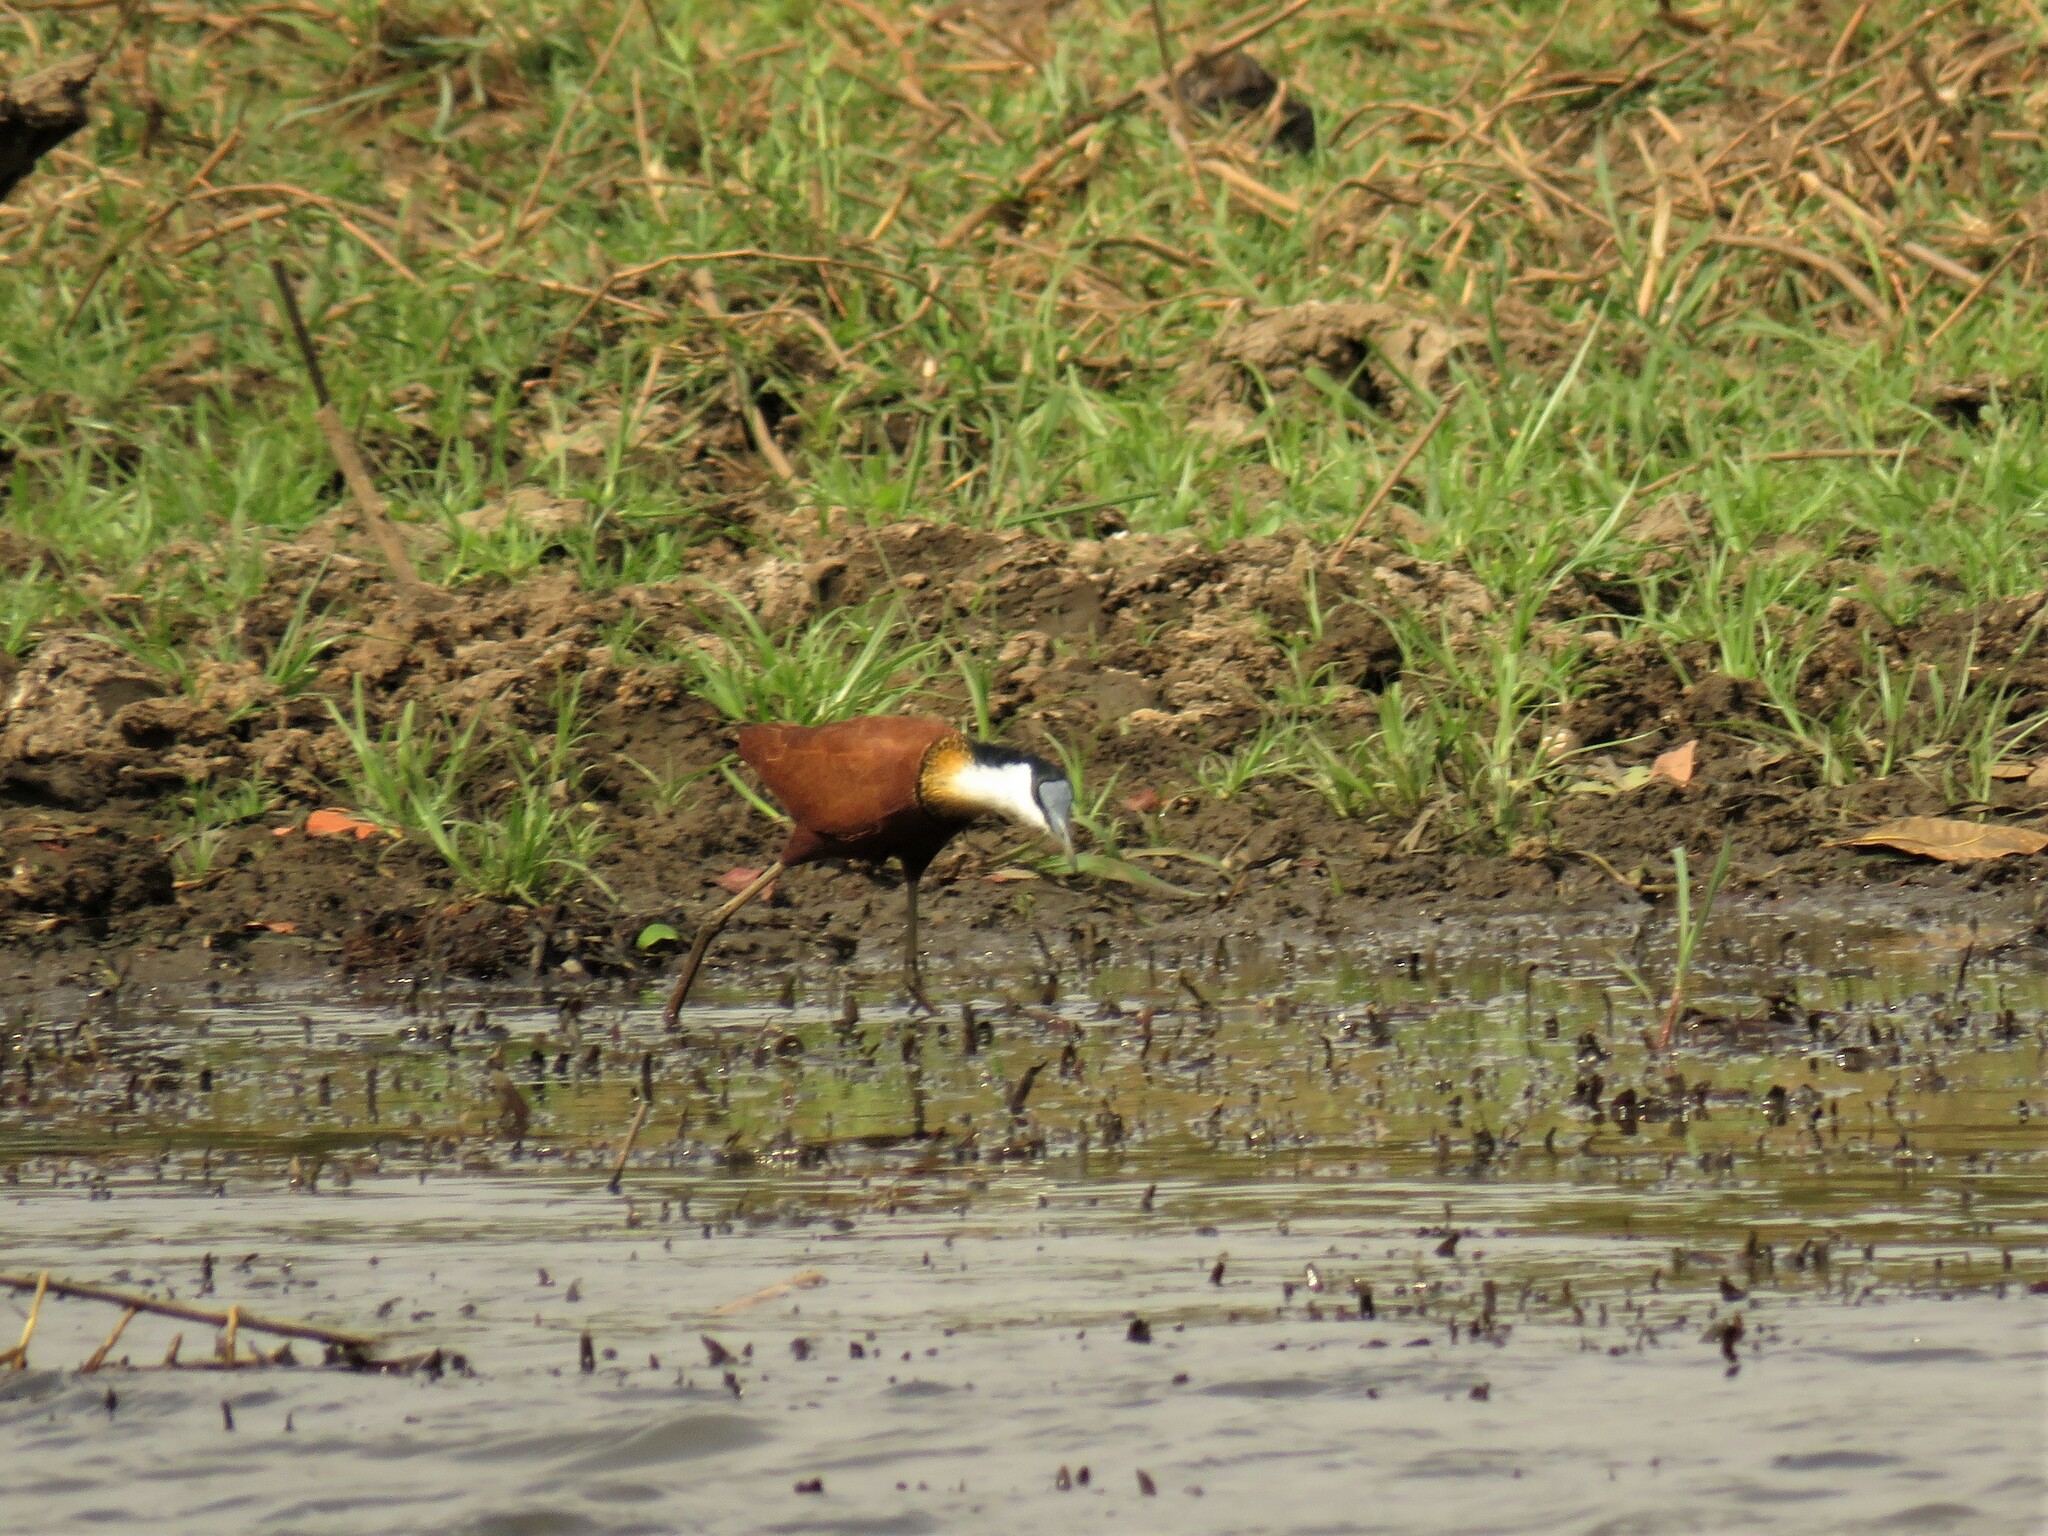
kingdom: Animalia
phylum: Chordata
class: Aves
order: Charadriiformes
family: Jacanidae
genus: Actophilornis
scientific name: Actophilornis africanus
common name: African jacana
